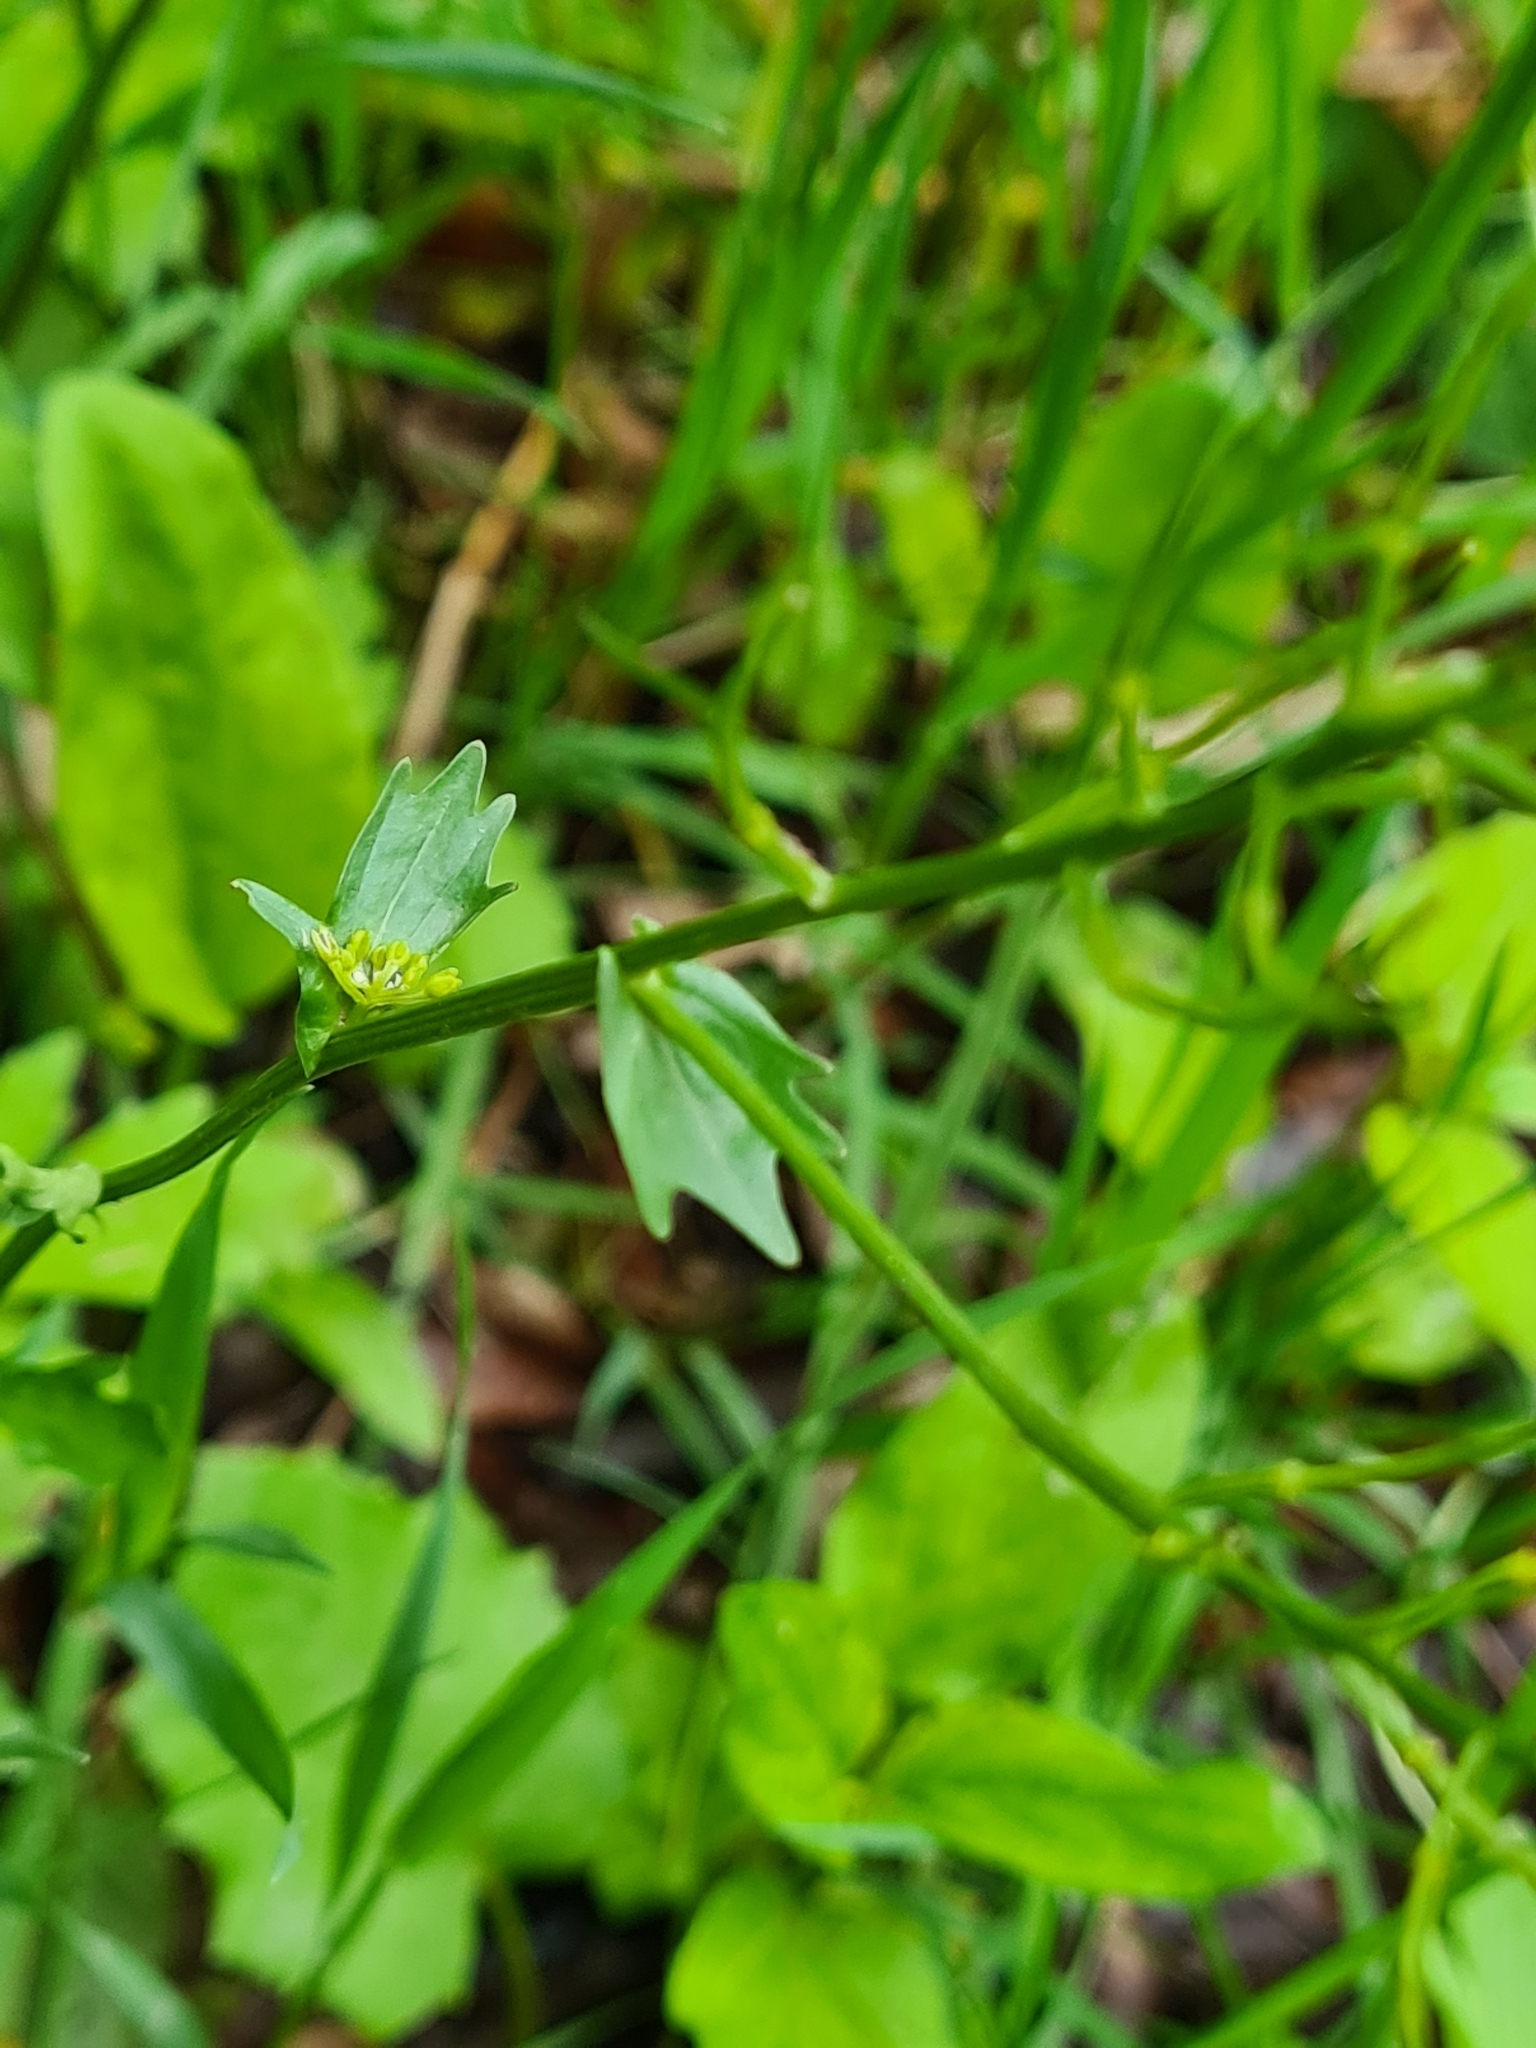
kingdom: Plantae
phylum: Tracheophyta
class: Magnoliopsida
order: Brassicales
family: Brassicaceae
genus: Barbarea
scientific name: Barbarea vulgaris
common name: Cressy-greens
